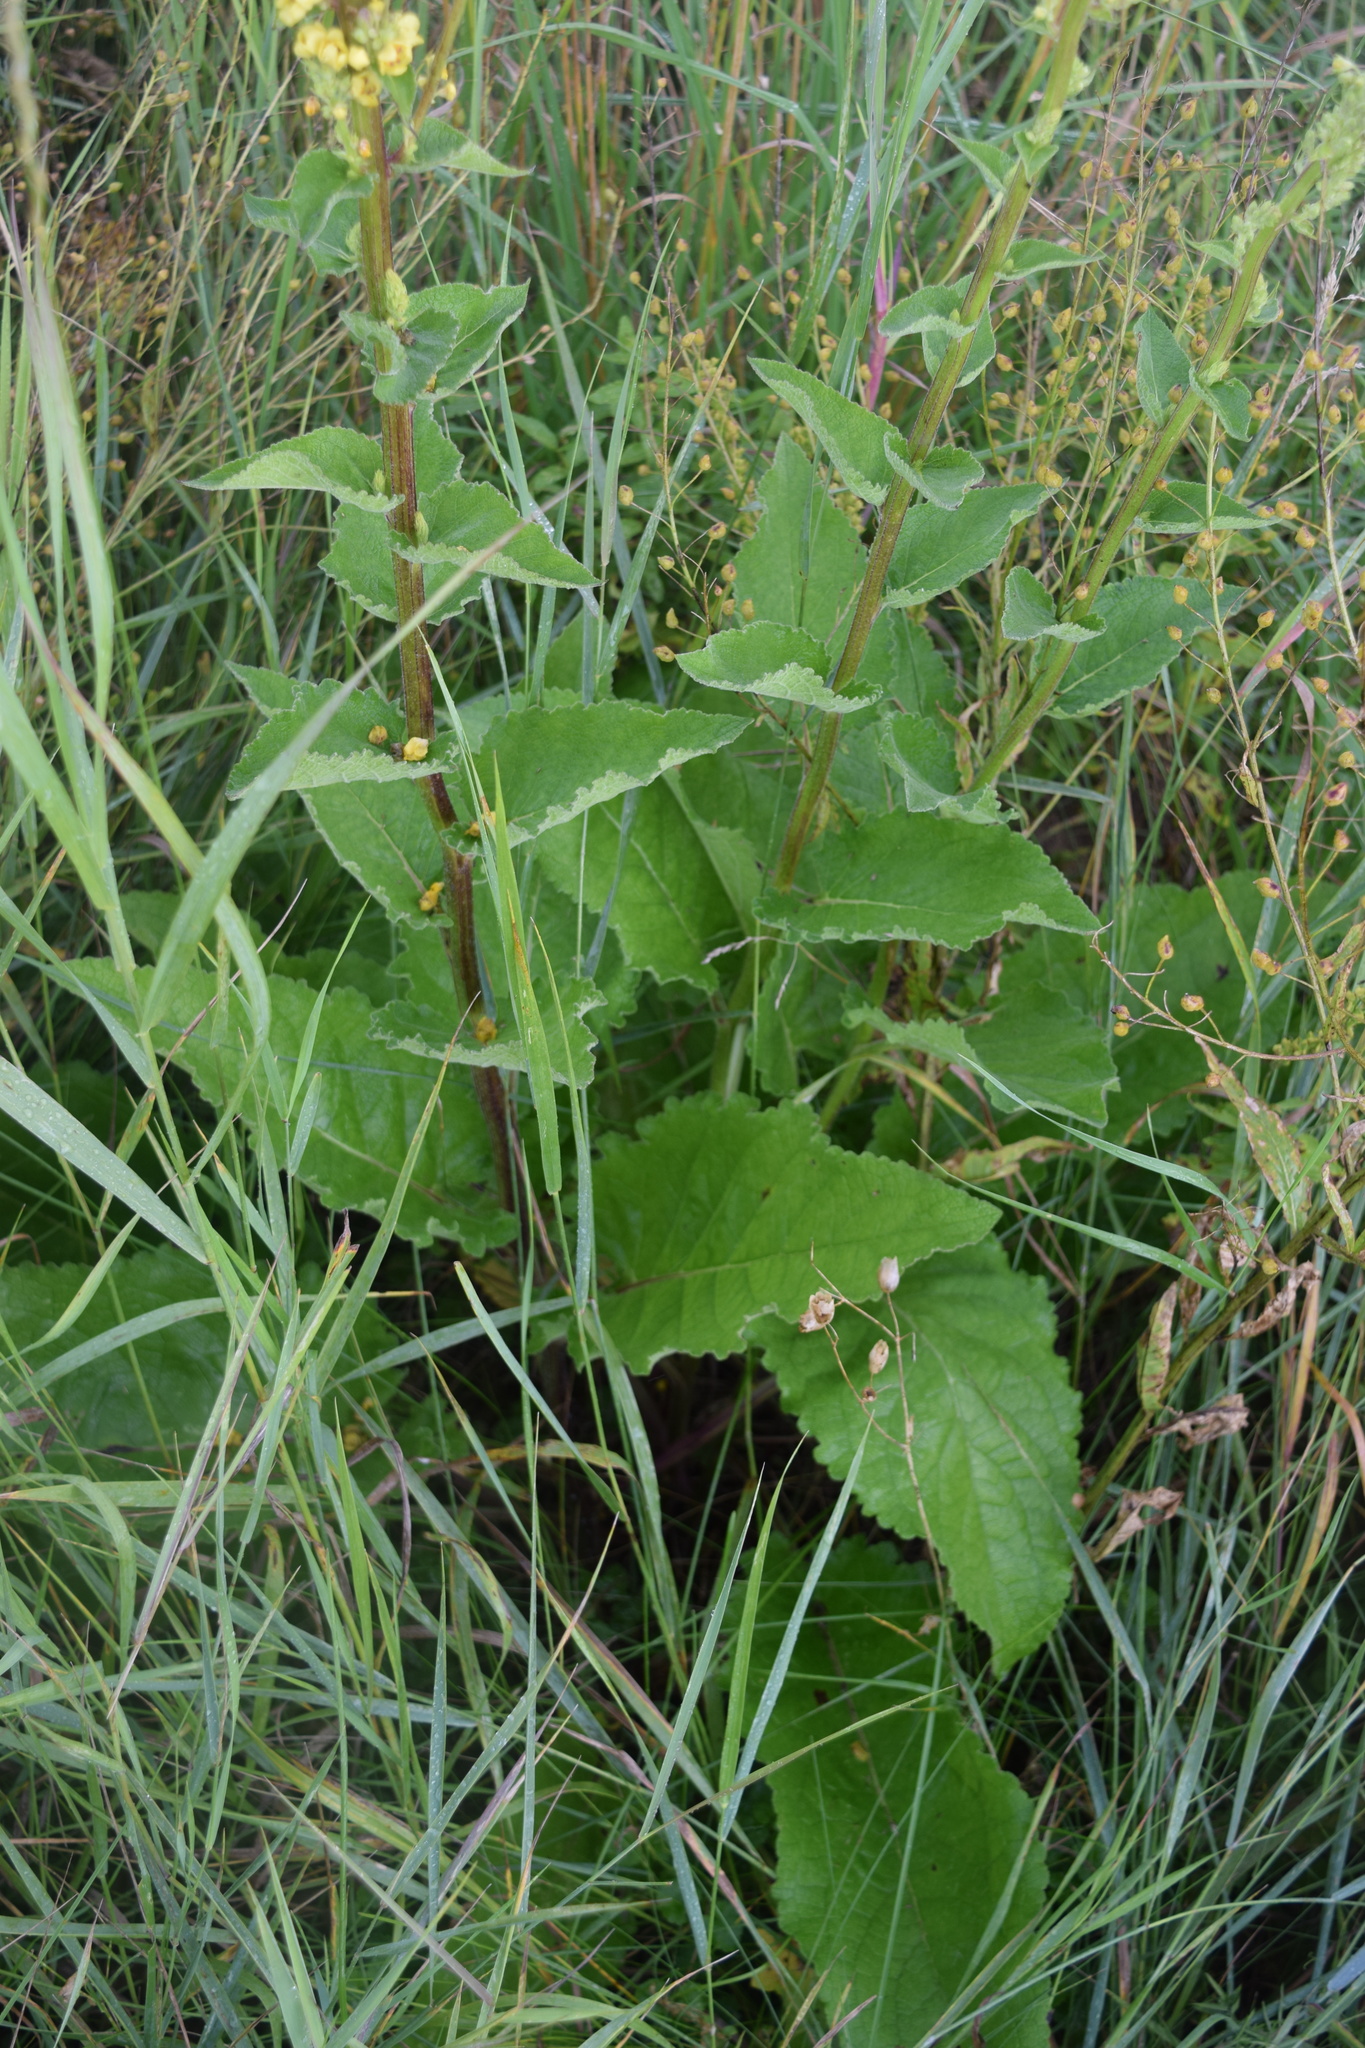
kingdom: Plantae
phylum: Tracheophyta
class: Magnoliopsida
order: Lamiales
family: Scrophulariaceae
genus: Verbascum
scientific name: Verbascum nigrum
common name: Dark mullein
